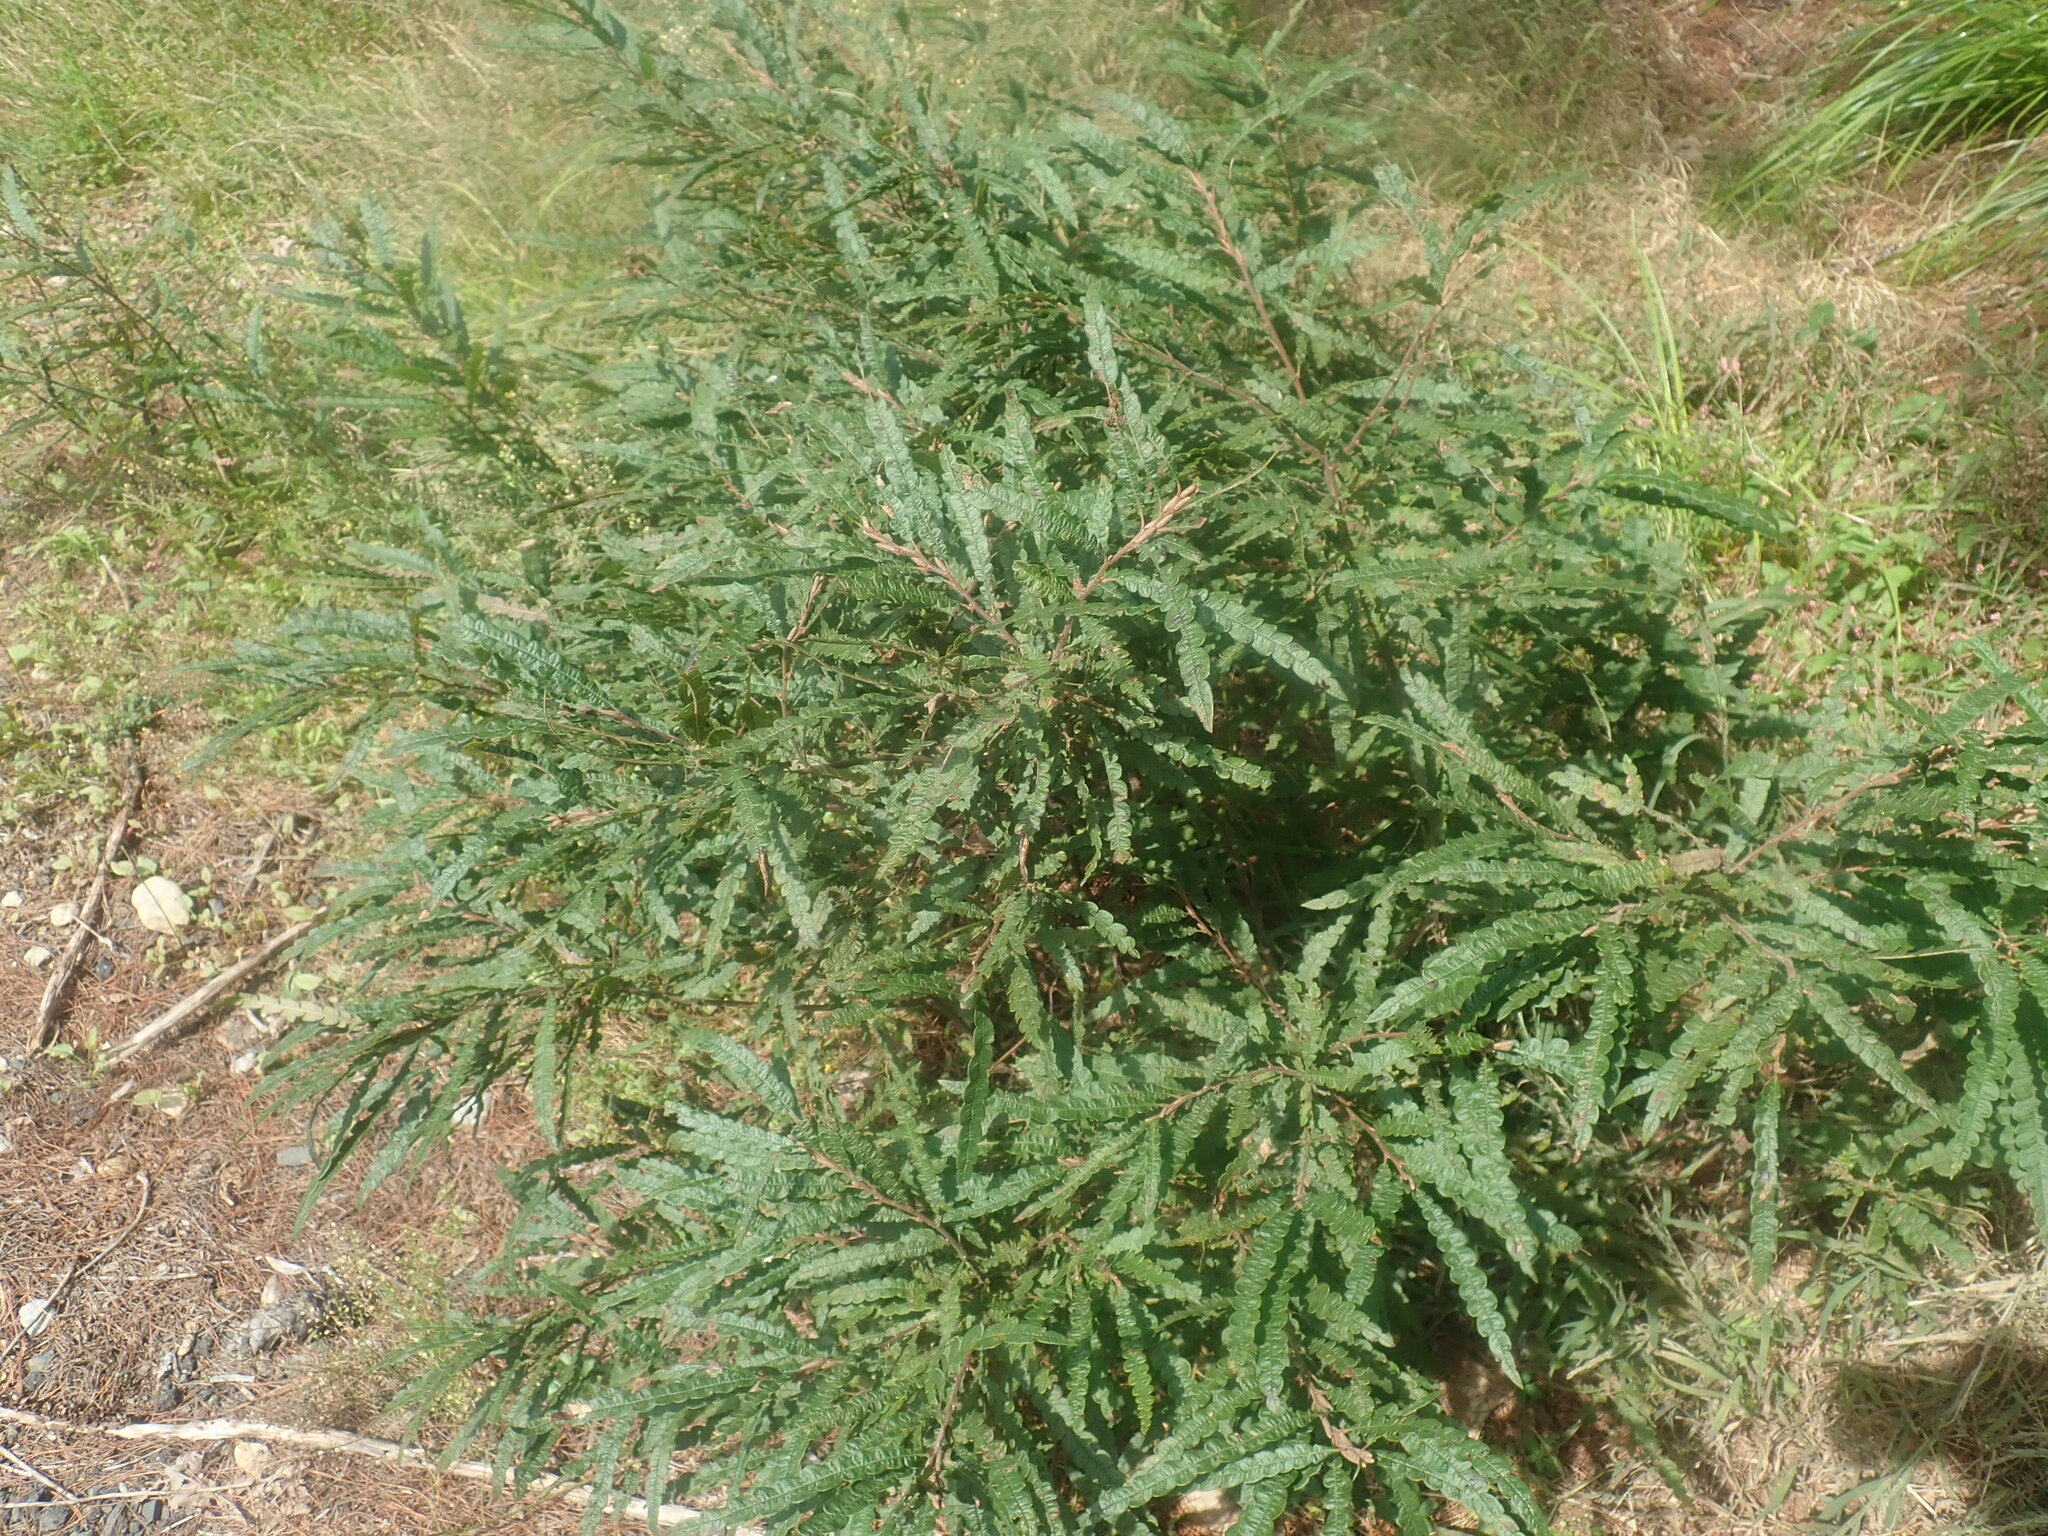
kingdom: Plantae
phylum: Tracheophyta
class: Magnoliopsida
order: Fagales
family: Myricaceae
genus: Comptonia
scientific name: Comptonia peregrina
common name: Sweet-fern
